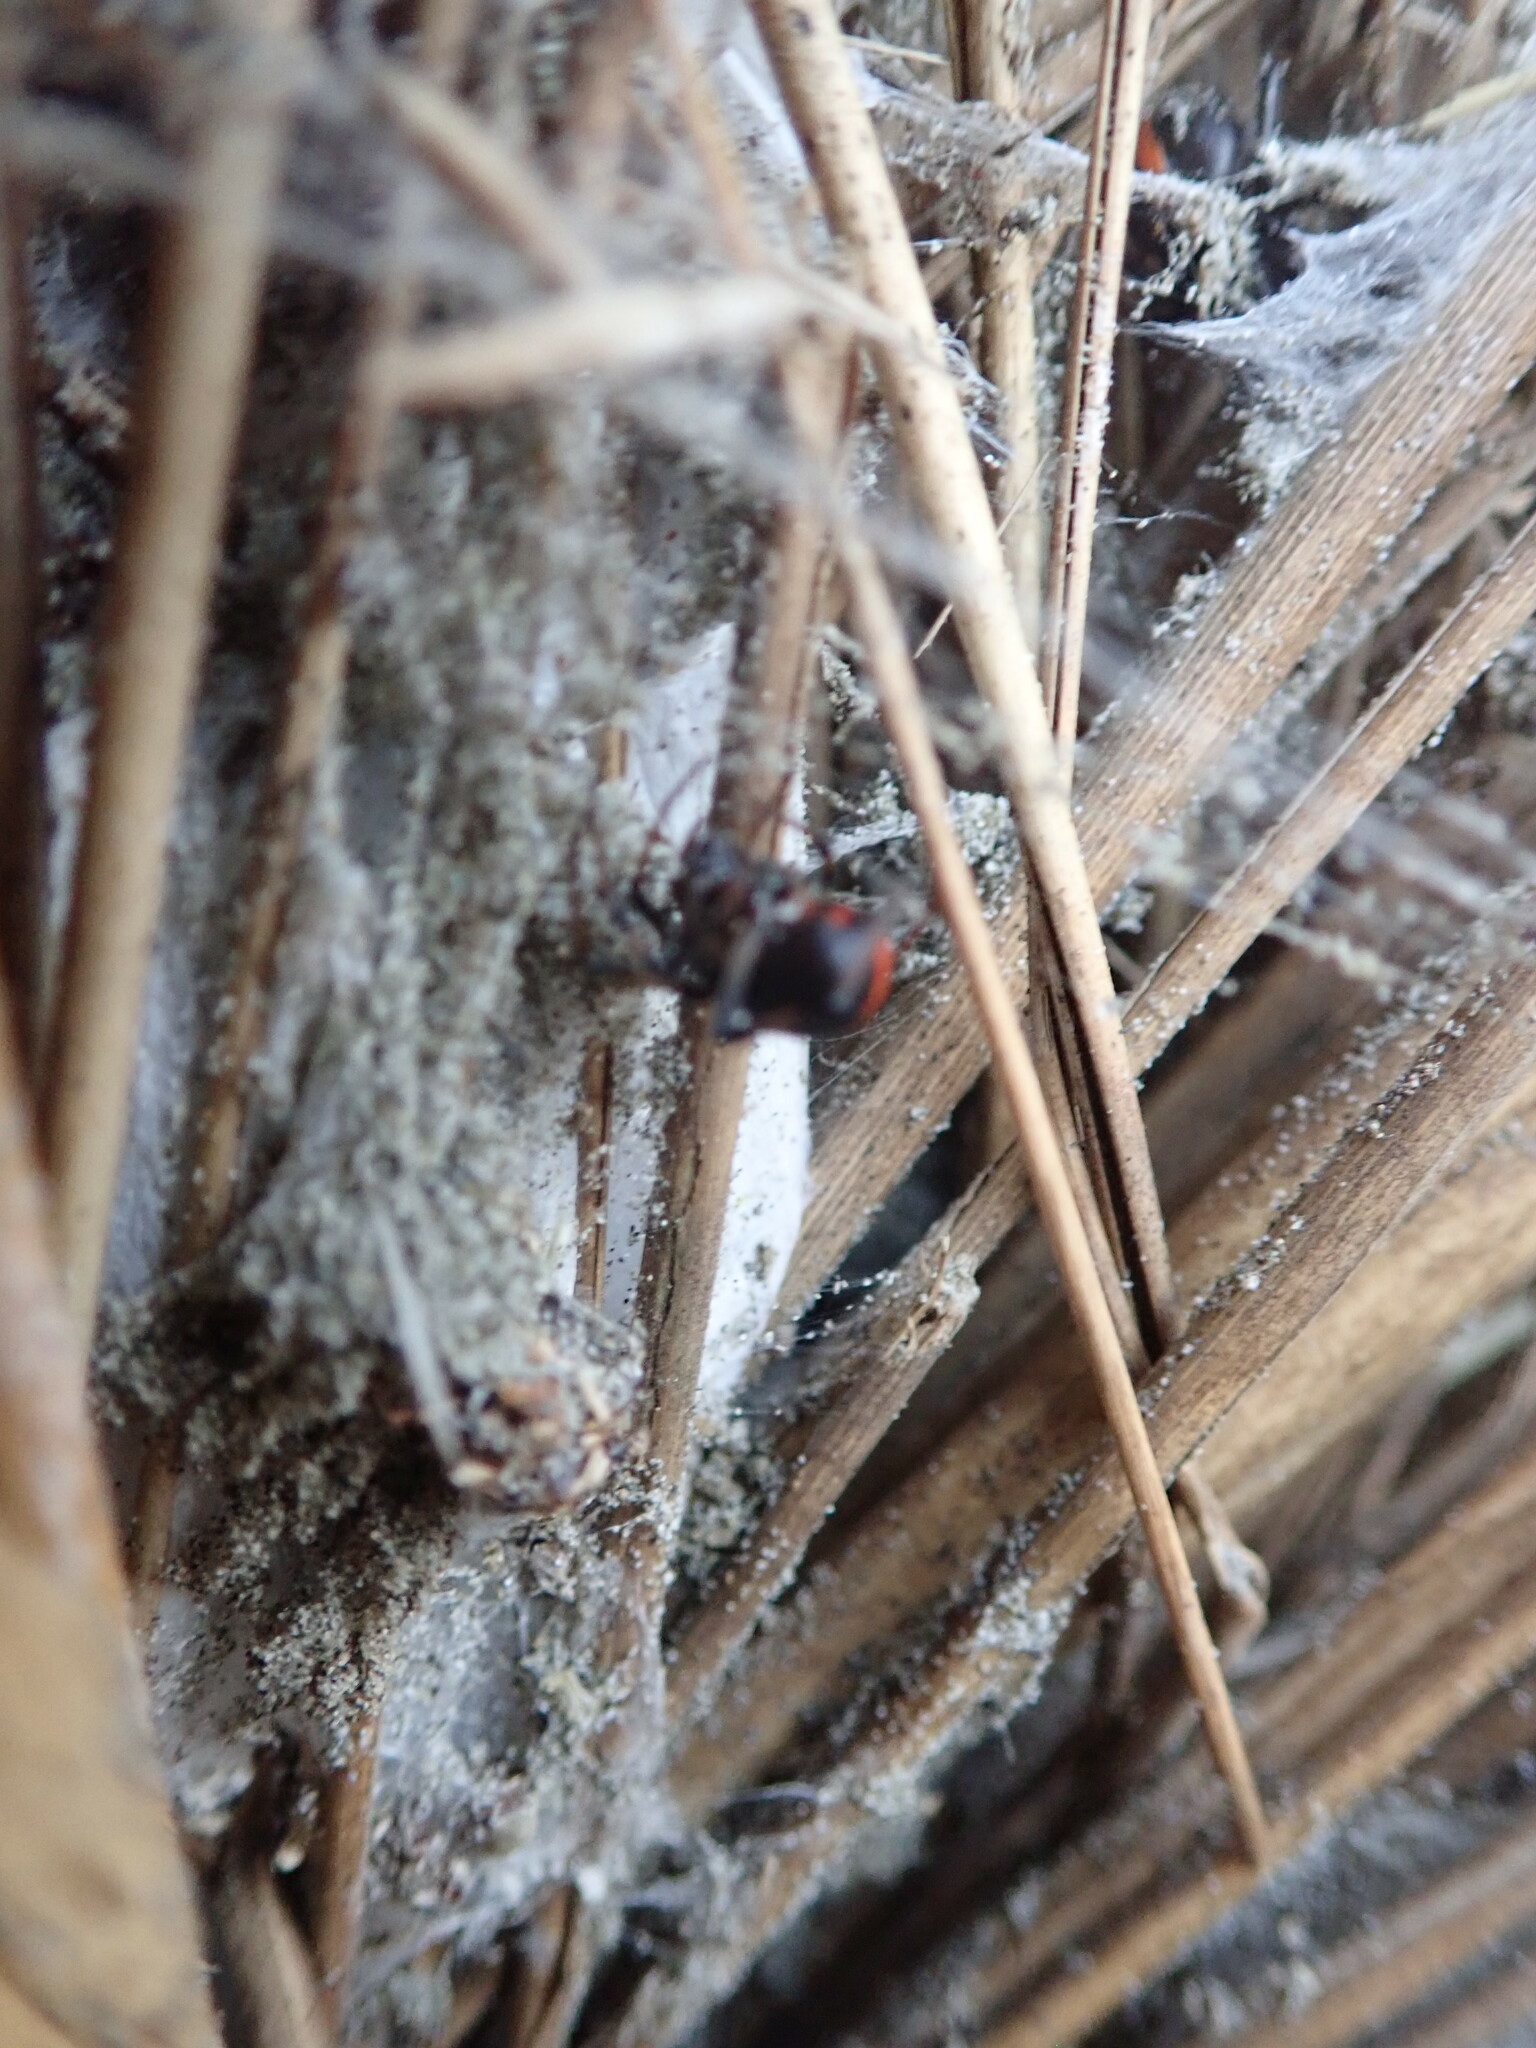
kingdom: Animalia
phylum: Arthropoda
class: Arachnida
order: Araneae
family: Theridiidae
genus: Latrodectus
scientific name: Latrodectus katipo
